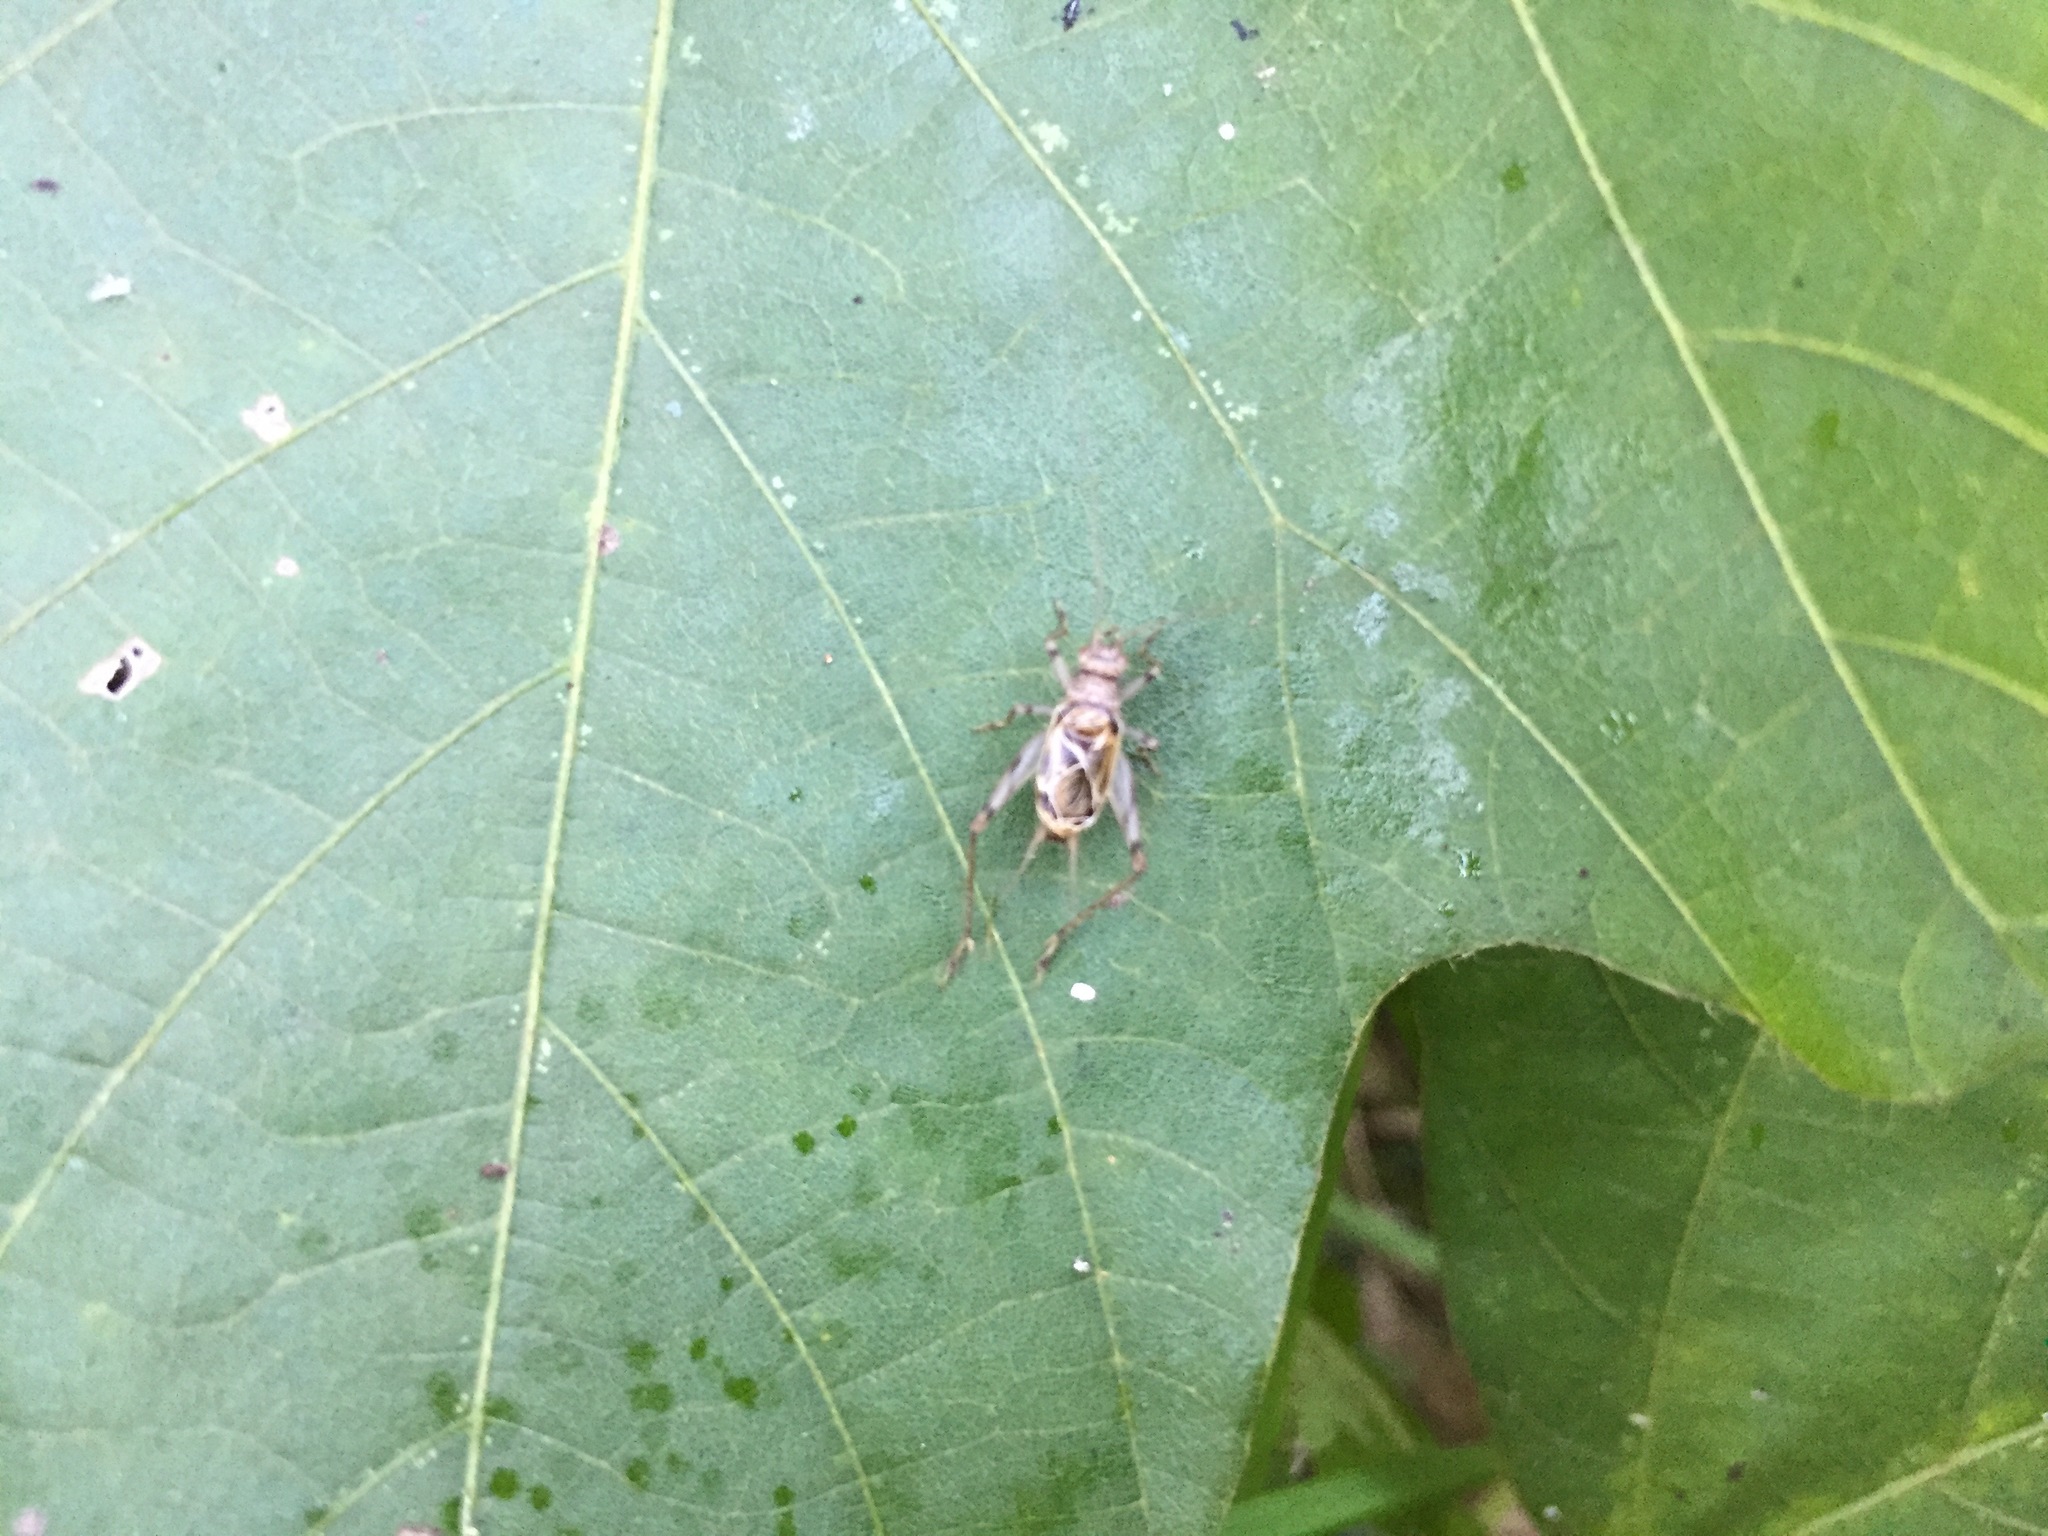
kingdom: Animalia
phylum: Arthropoda
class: Insecta
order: Orthoptera
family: Trigonidiidae
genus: Svistella
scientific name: Svistella bifasciata
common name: Gold bell
